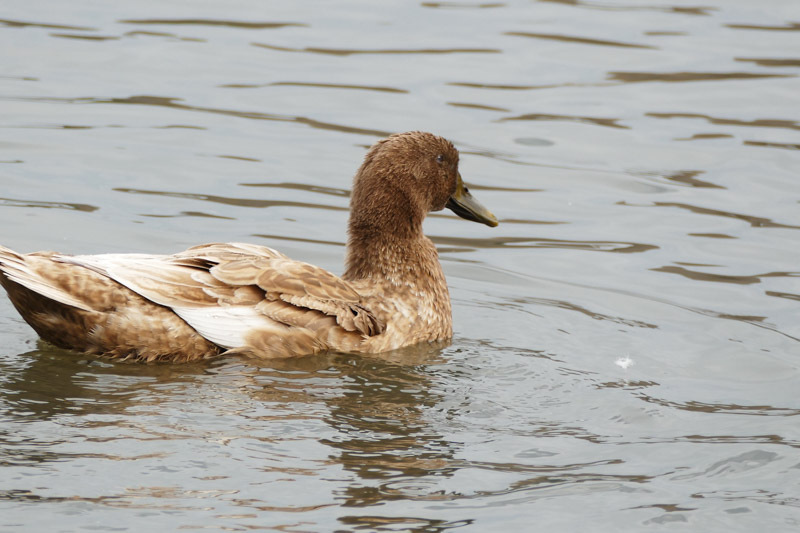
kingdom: Animalia
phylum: Chordata
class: Aves
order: Anseriformes
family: Anatidae
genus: Anas
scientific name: Anas platyrhynchos
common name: Mallard
